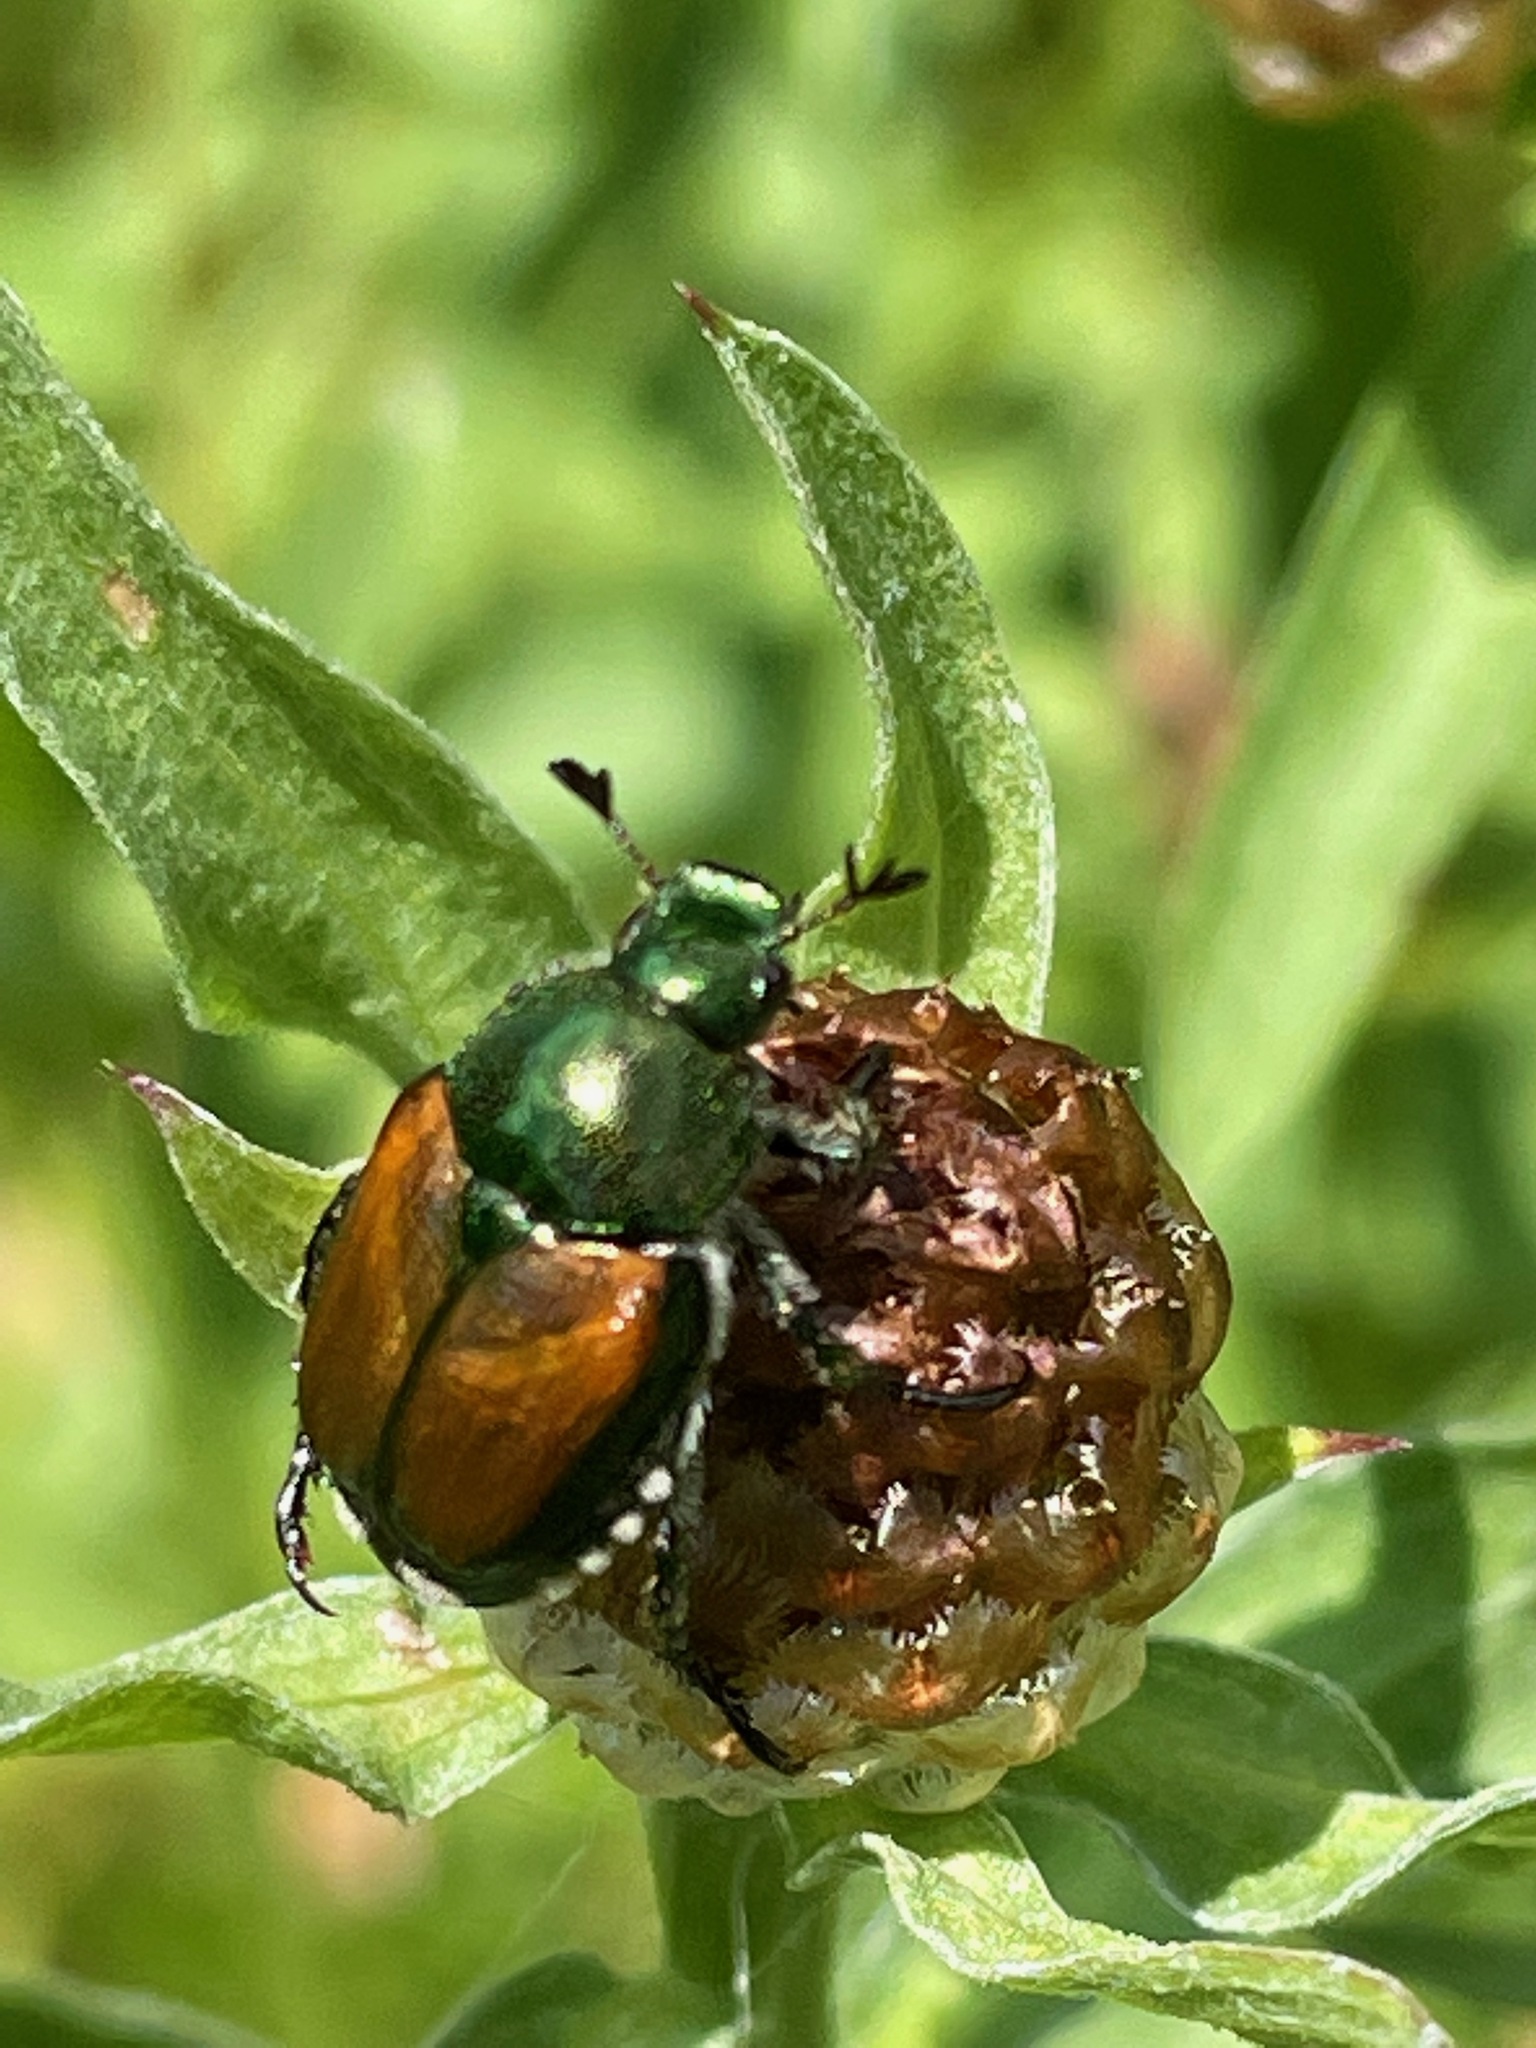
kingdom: Animalia
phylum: Arthropoda
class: Insecta
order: Coleoptera
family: Scarabaeidae
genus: Popillia
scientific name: Popillia japonica
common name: Japanese beetle
